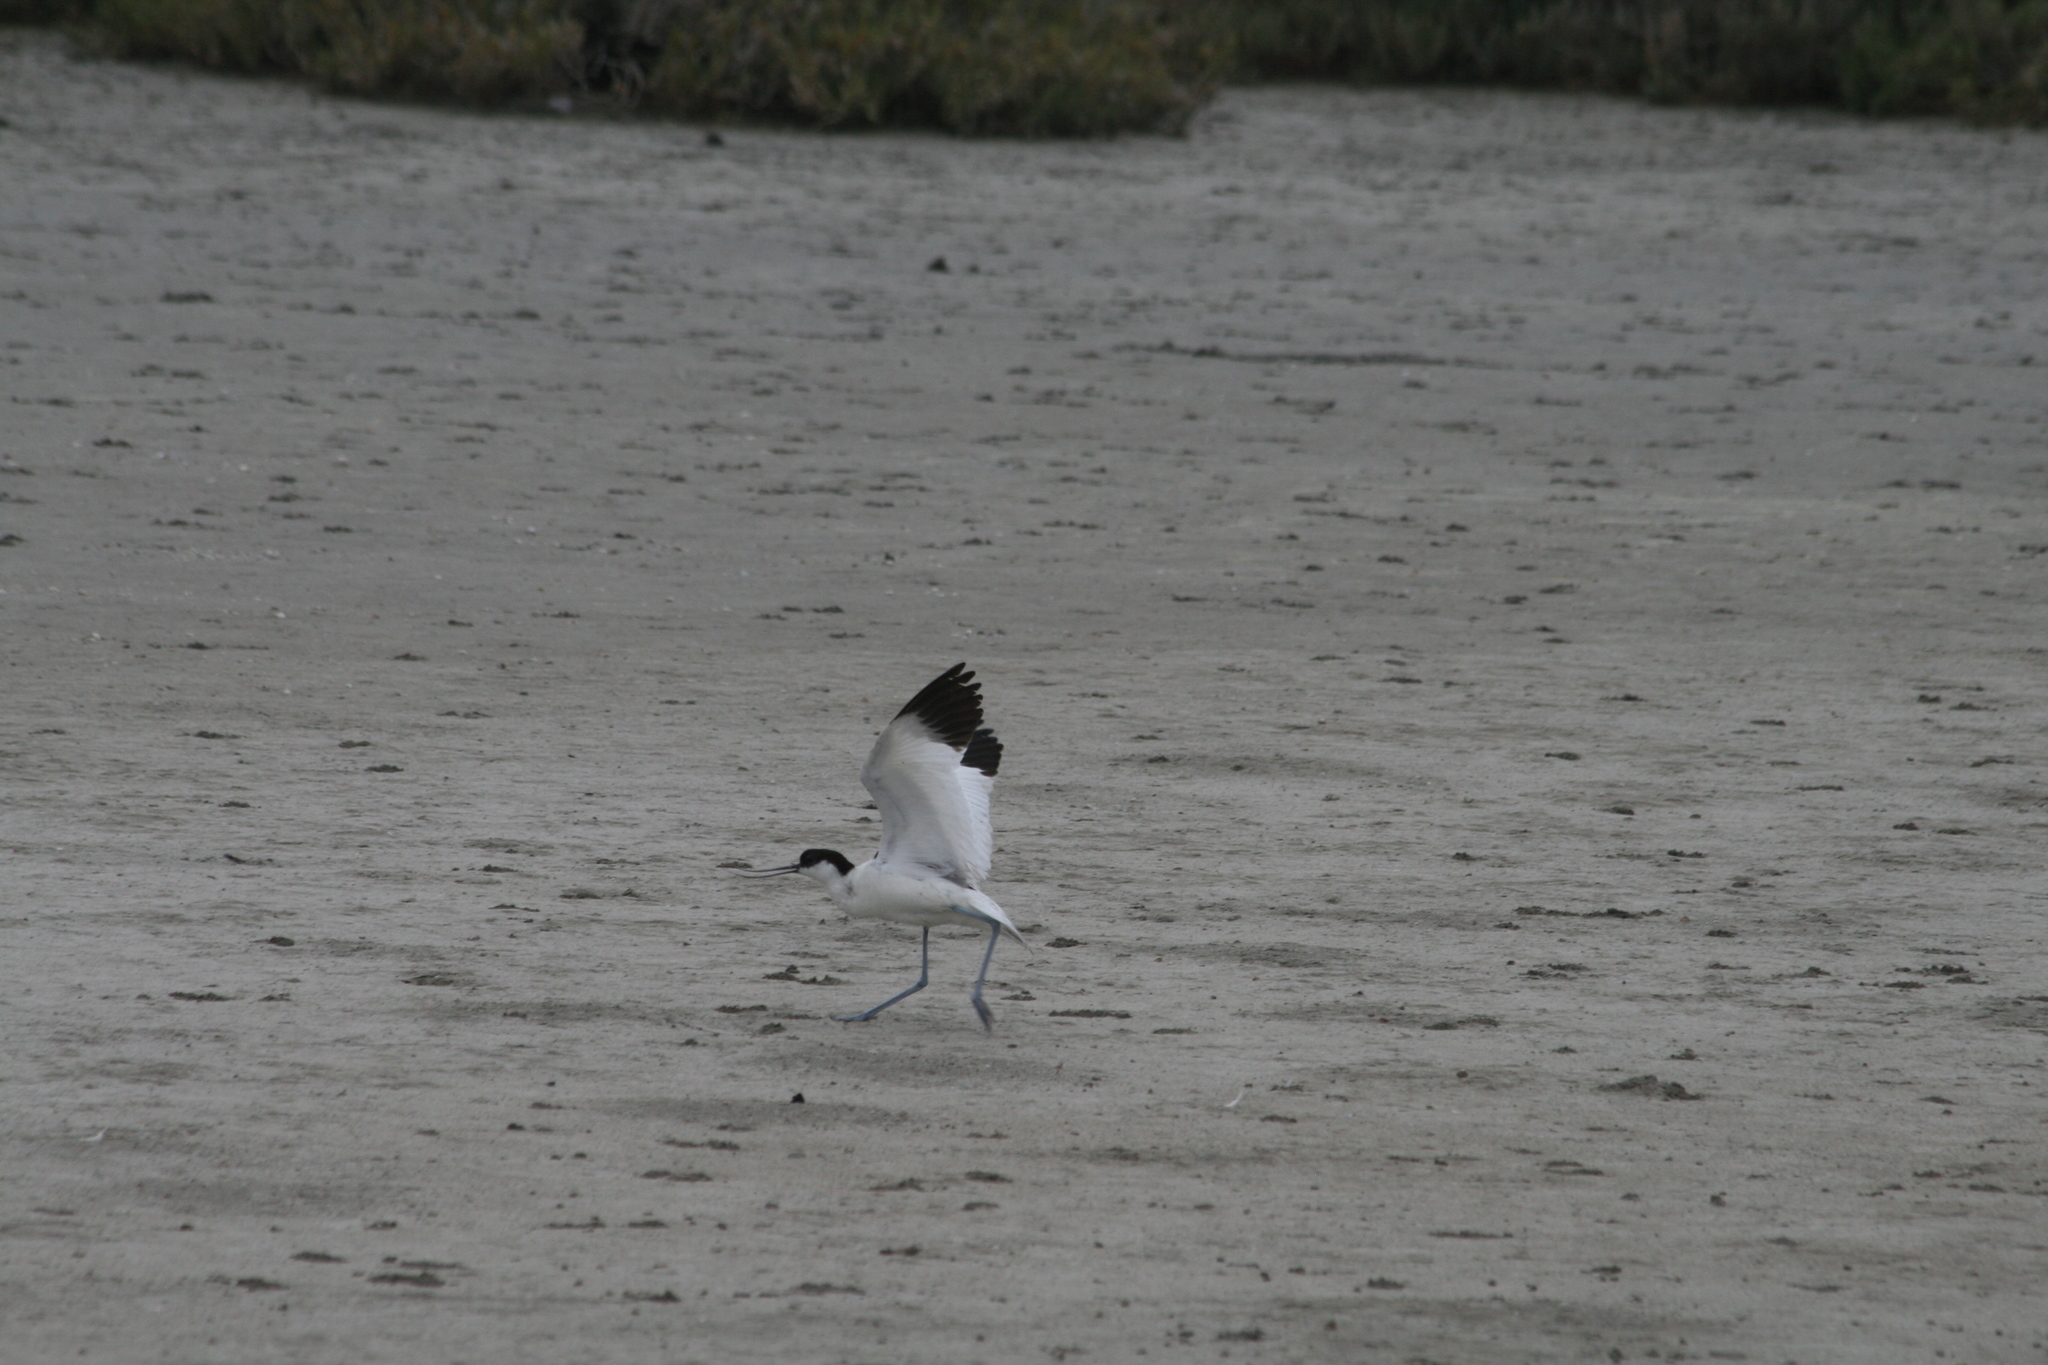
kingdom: Animalia
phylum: Chordata
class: Aves
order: Charadriiformes
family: Recurvirostridae
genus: Recurvirostra
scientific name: Recurvirostra avosetta
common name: Pied avocet
